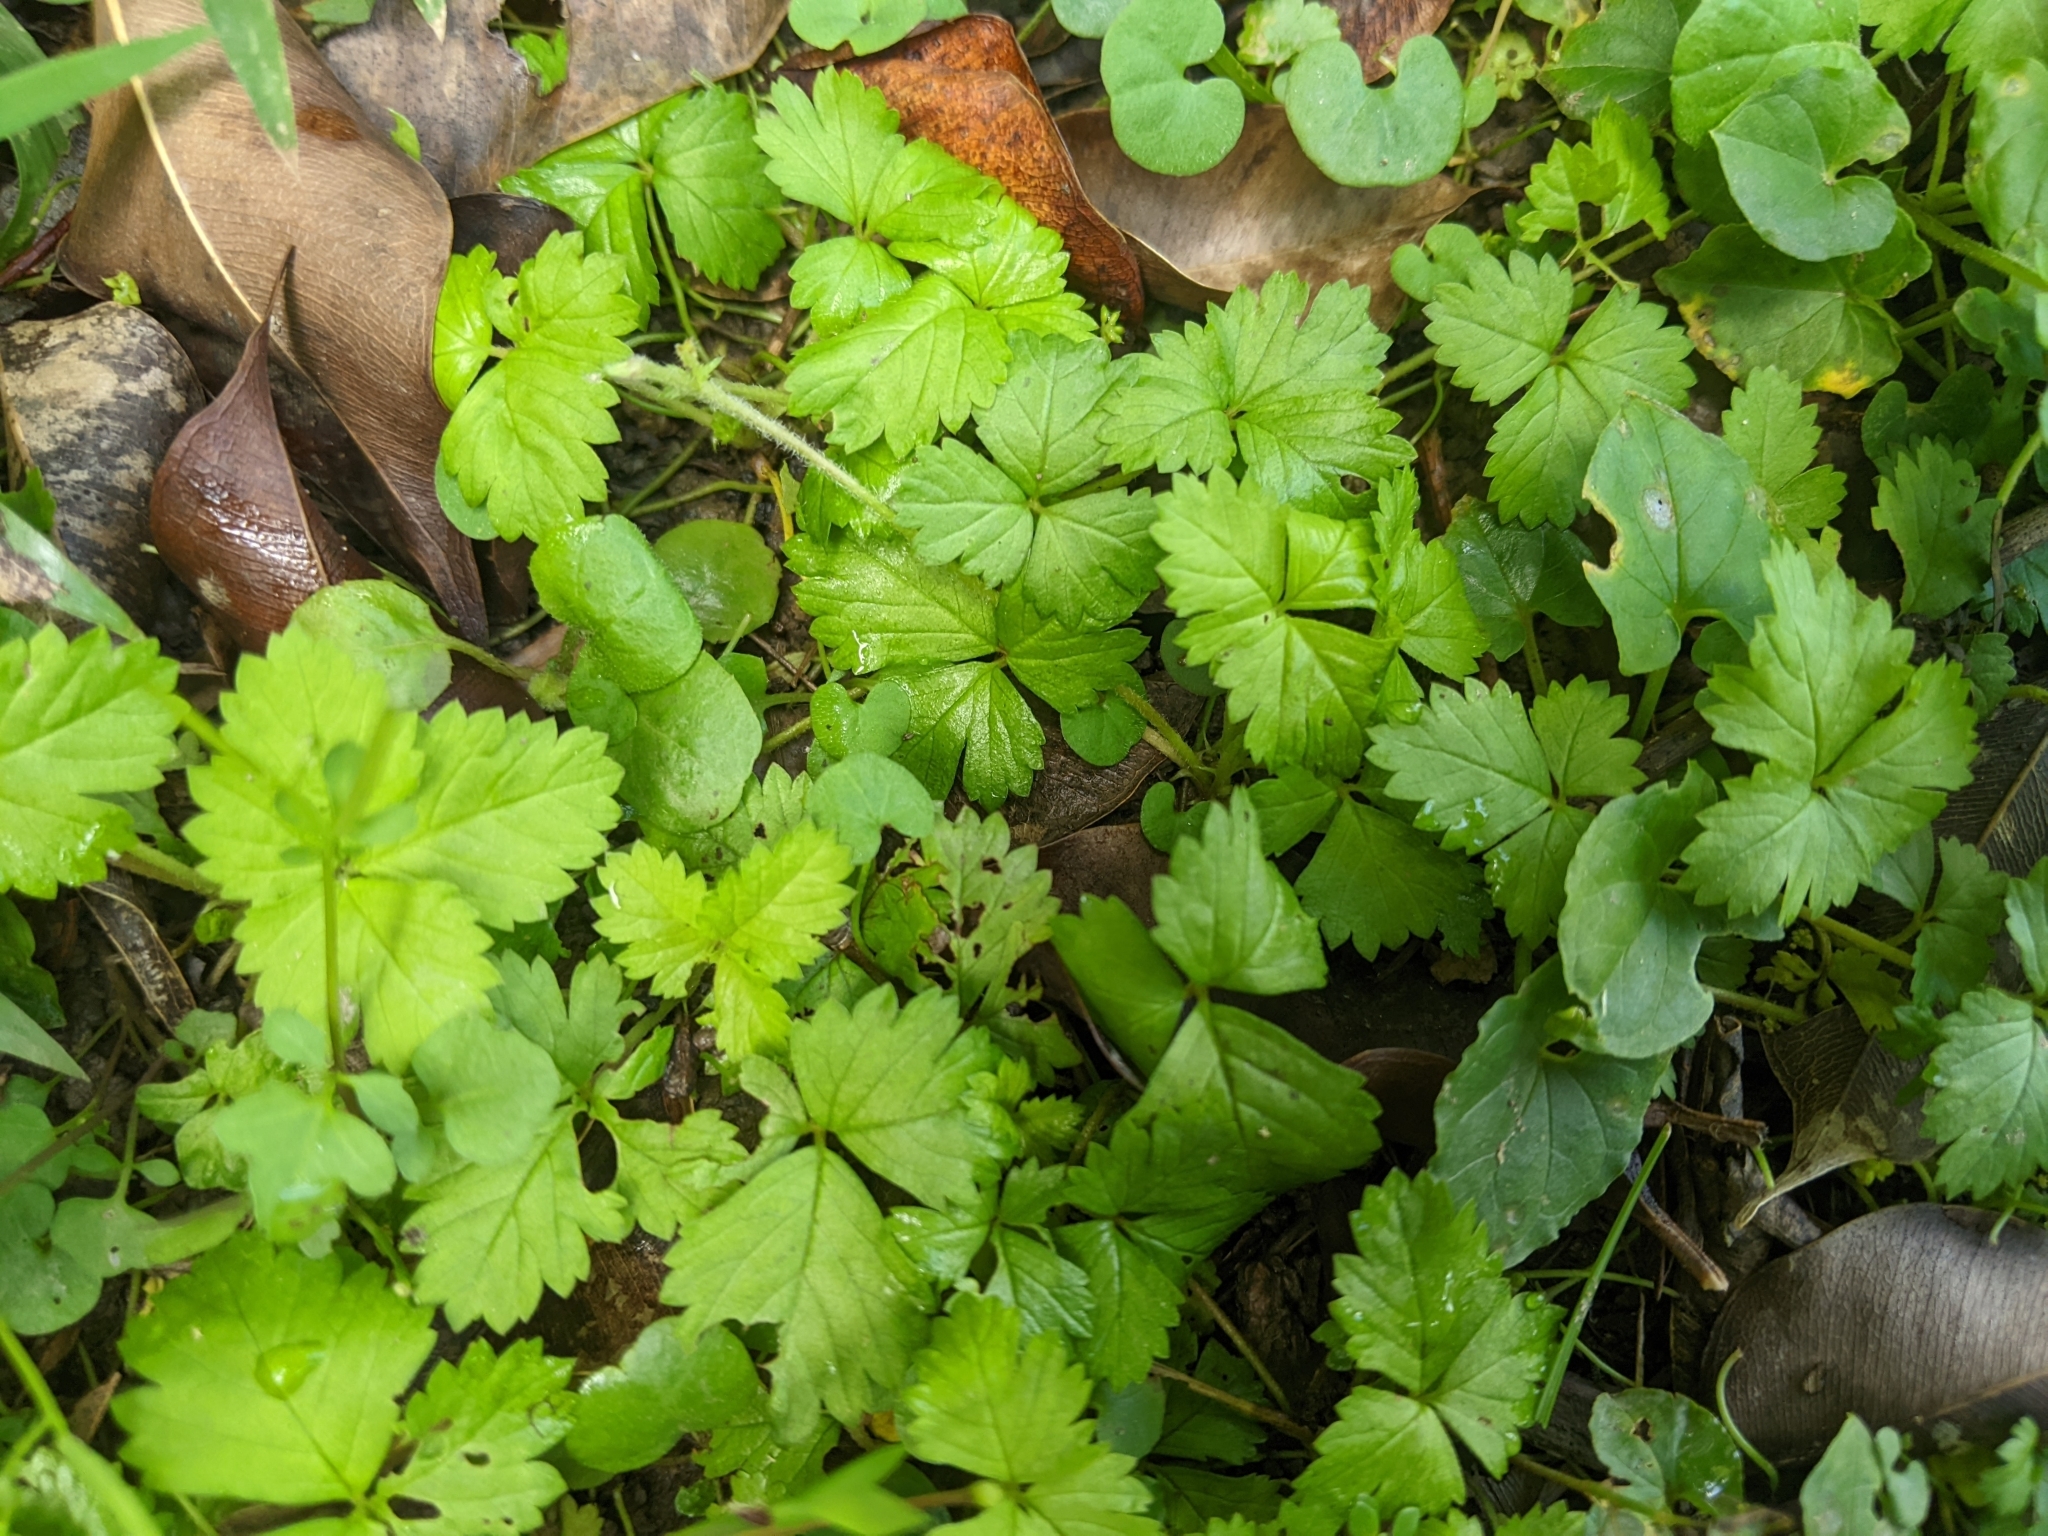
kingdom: Plantae
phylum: Tracheophyta
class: Magnoliopsida
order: Rosales
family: Rosaceae
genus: Potentilla
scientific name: Potentilla wallichiana
